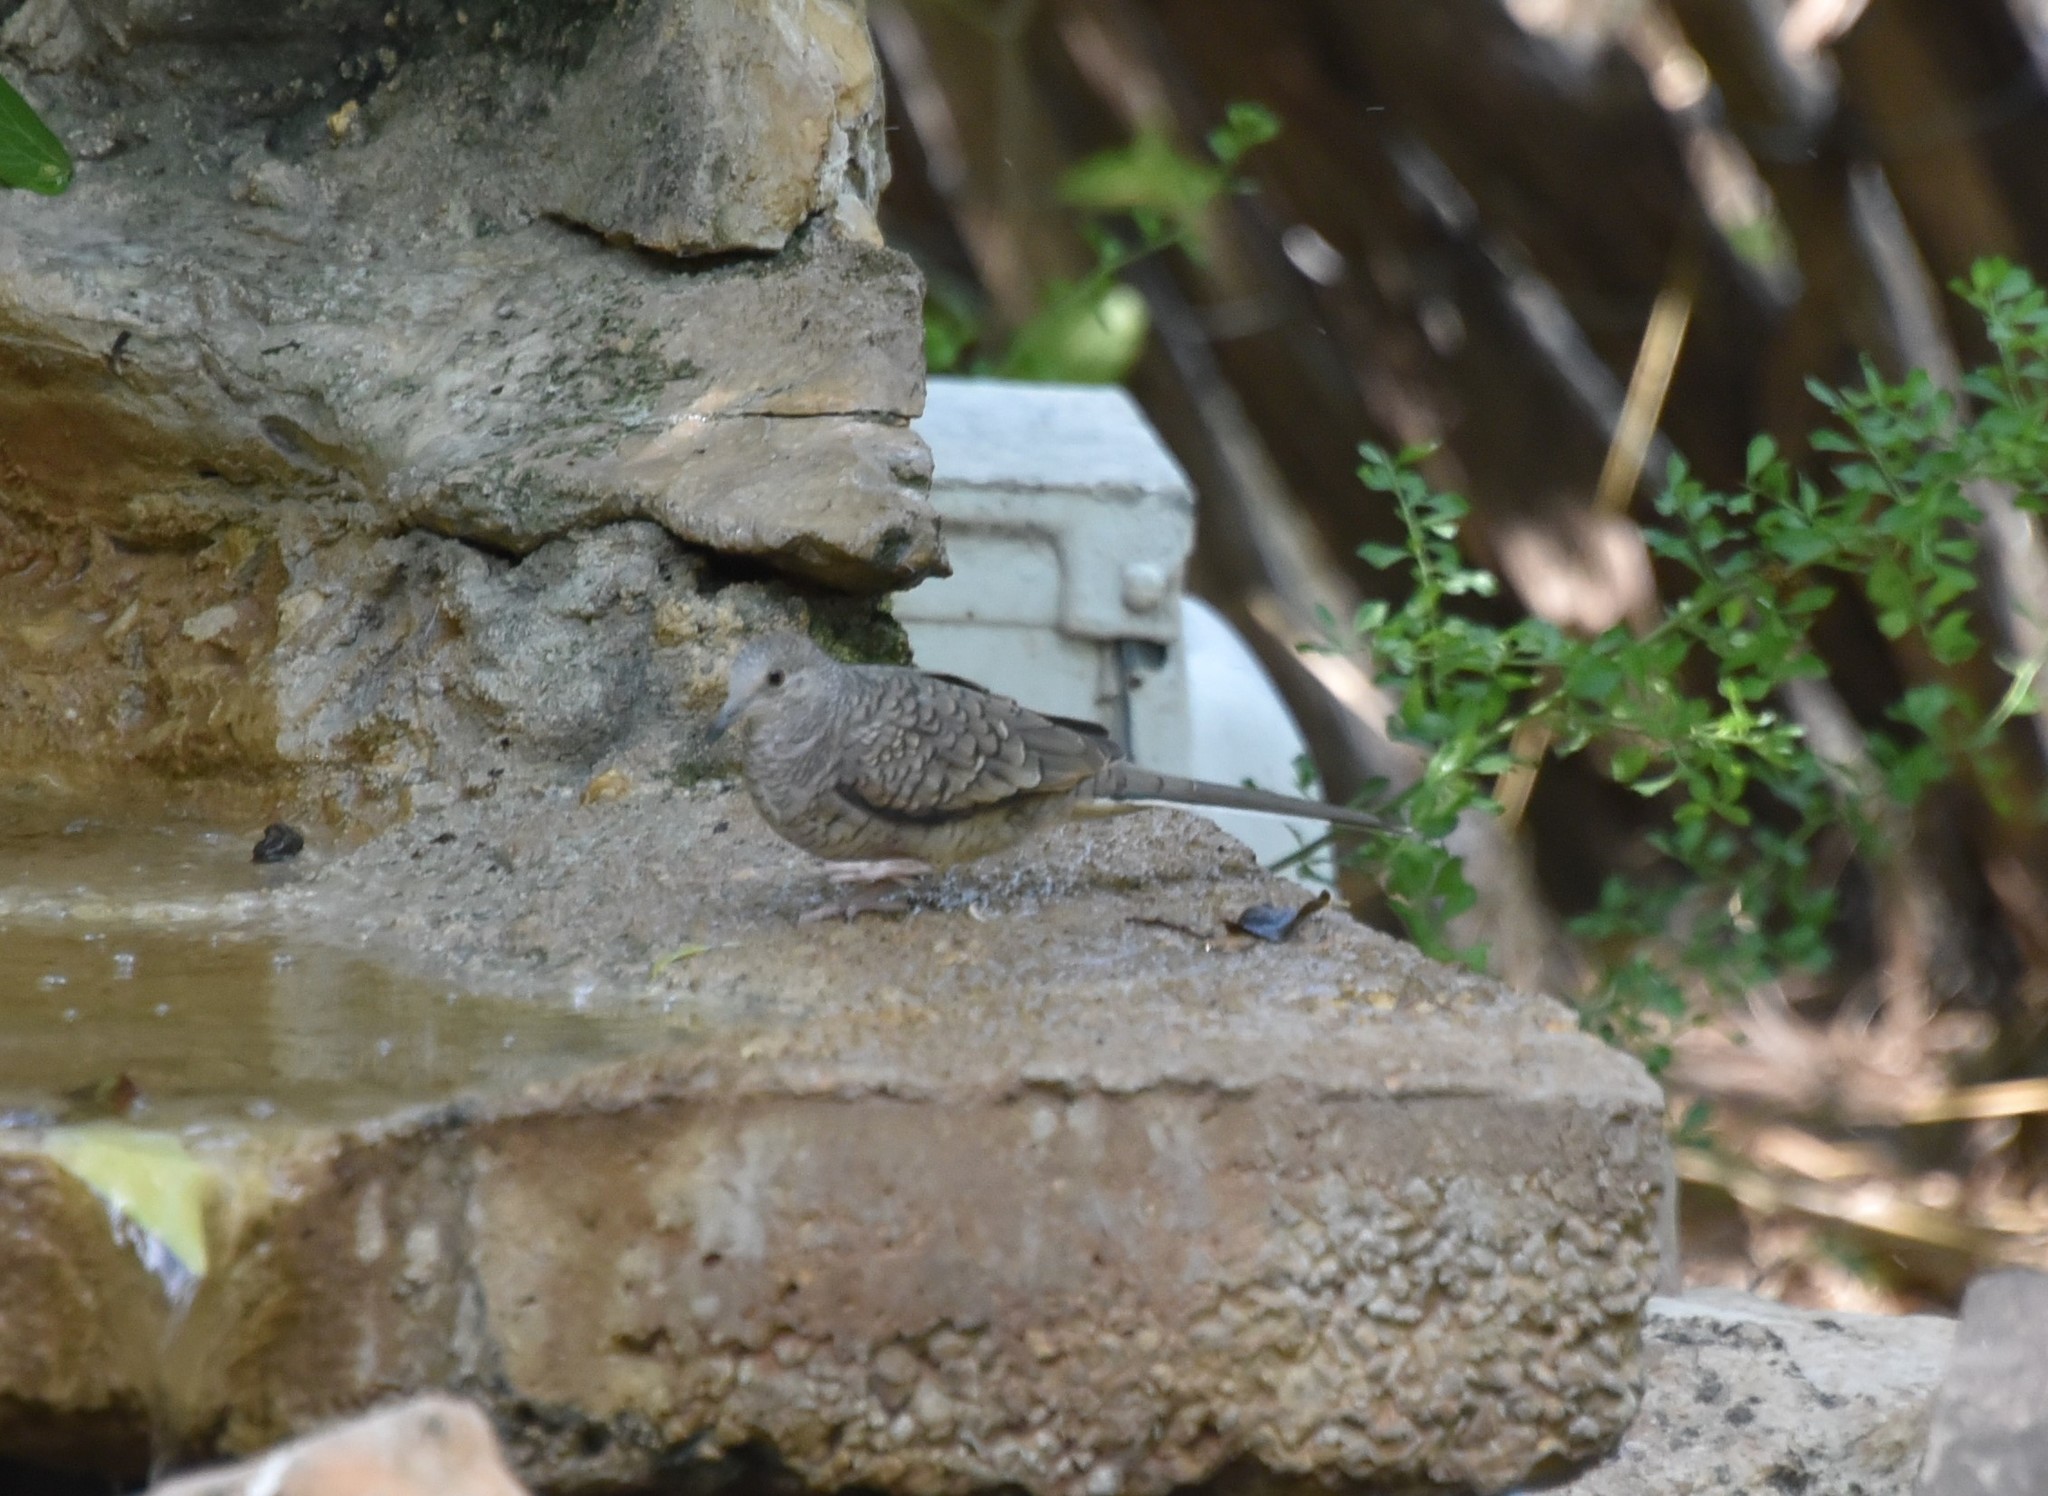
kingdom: Animalia
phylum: Chordata
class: Aves
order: Columbiformes
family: Columbidae
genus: Columbina
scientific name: Columbina inca
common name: Inca dove
